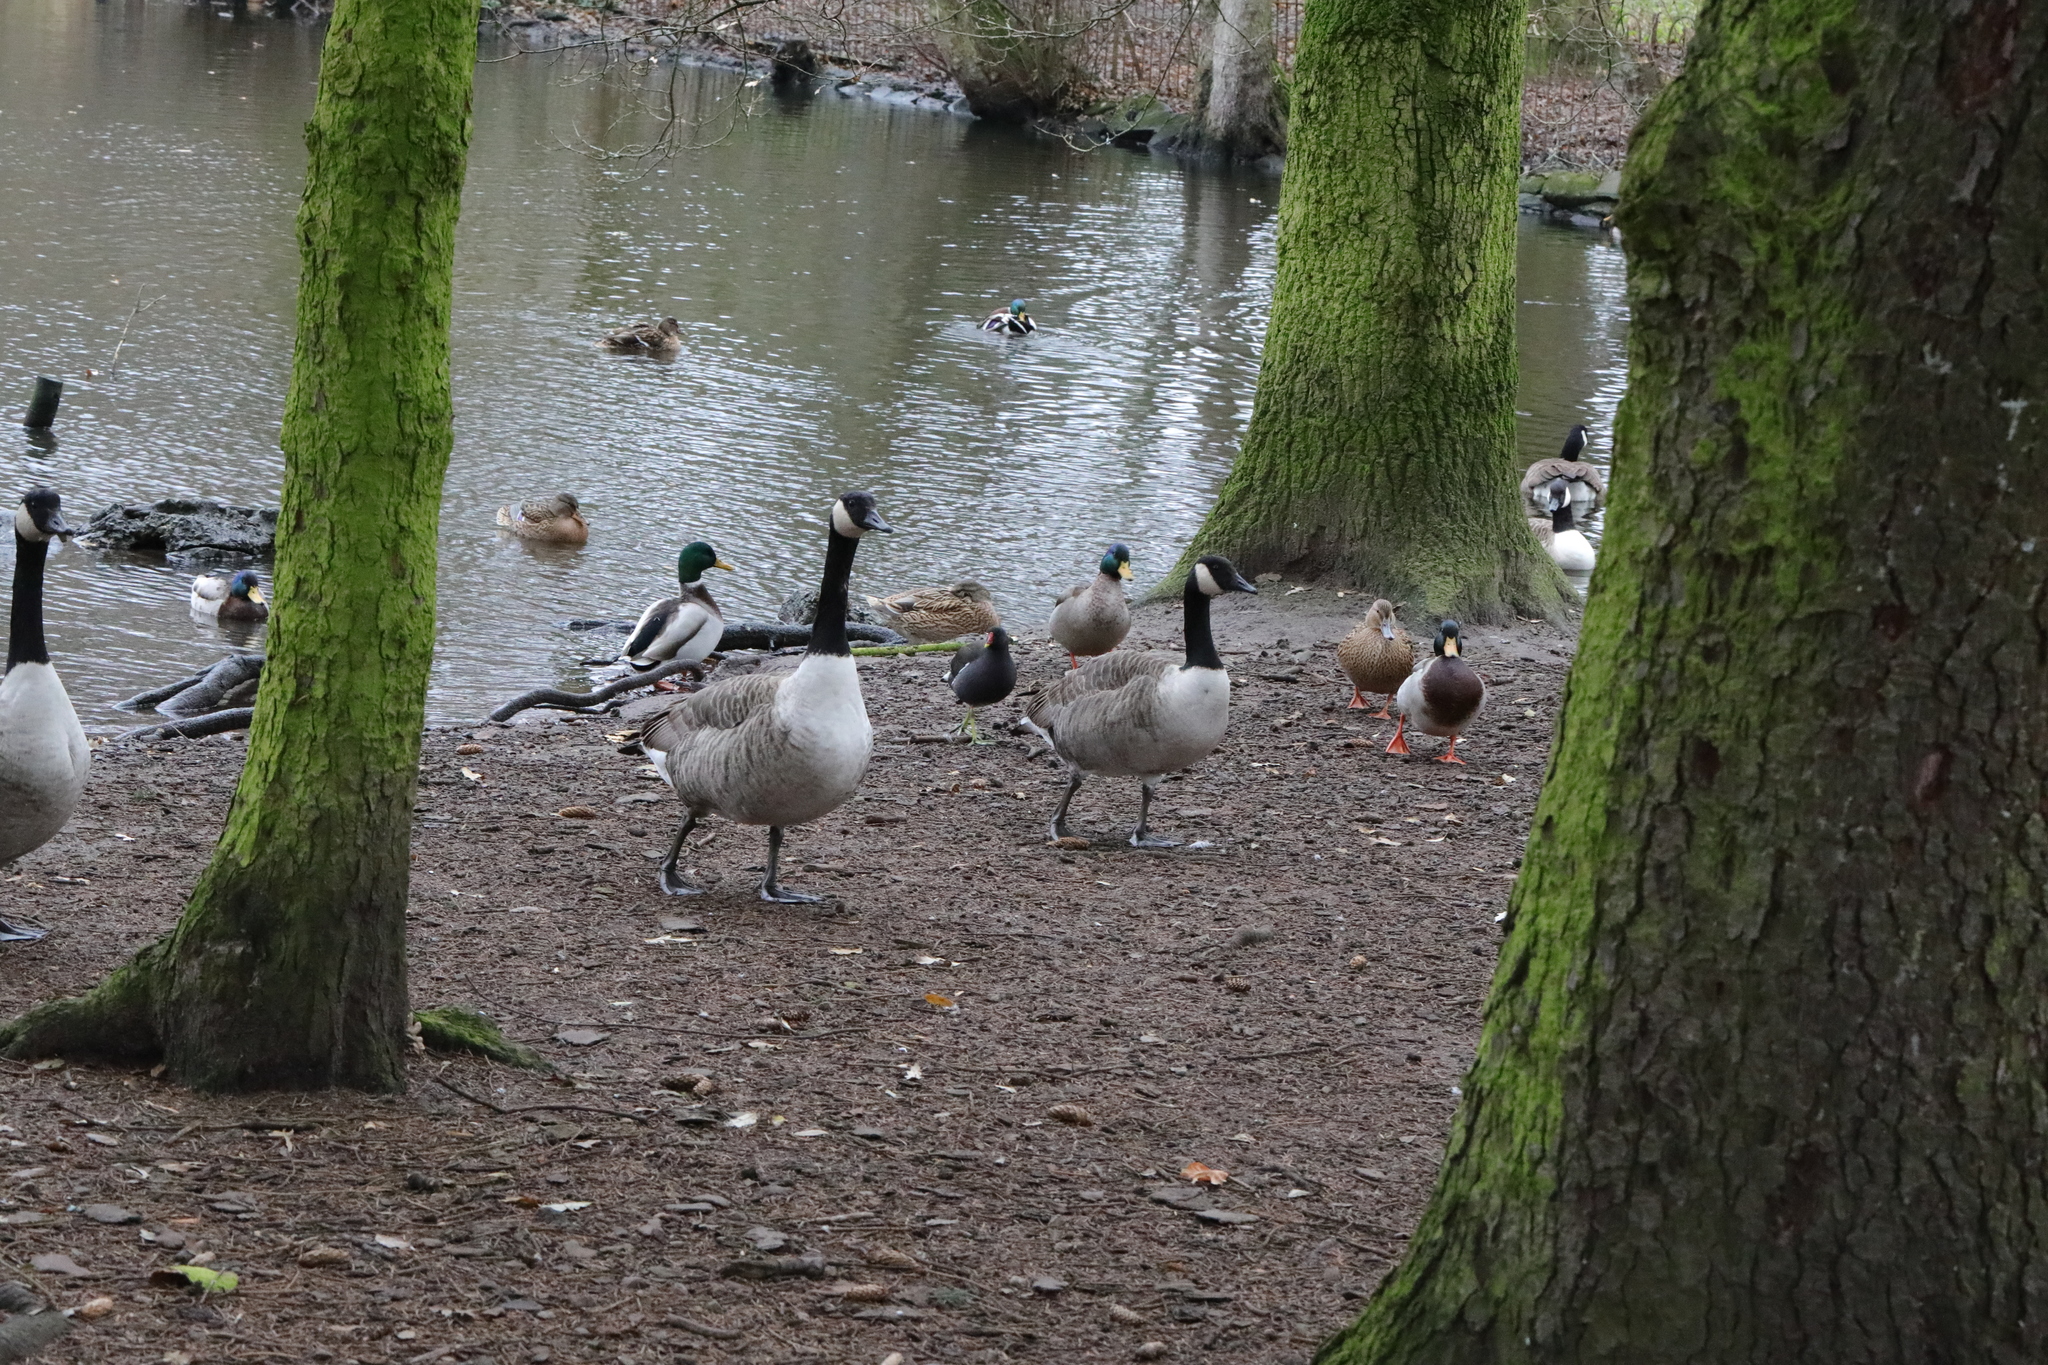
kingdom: Animalia
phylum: Chordata
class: Aves
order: Anseriformes
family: Anatidae
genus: Branta
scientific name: Branta canadensis
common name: Canada goose
